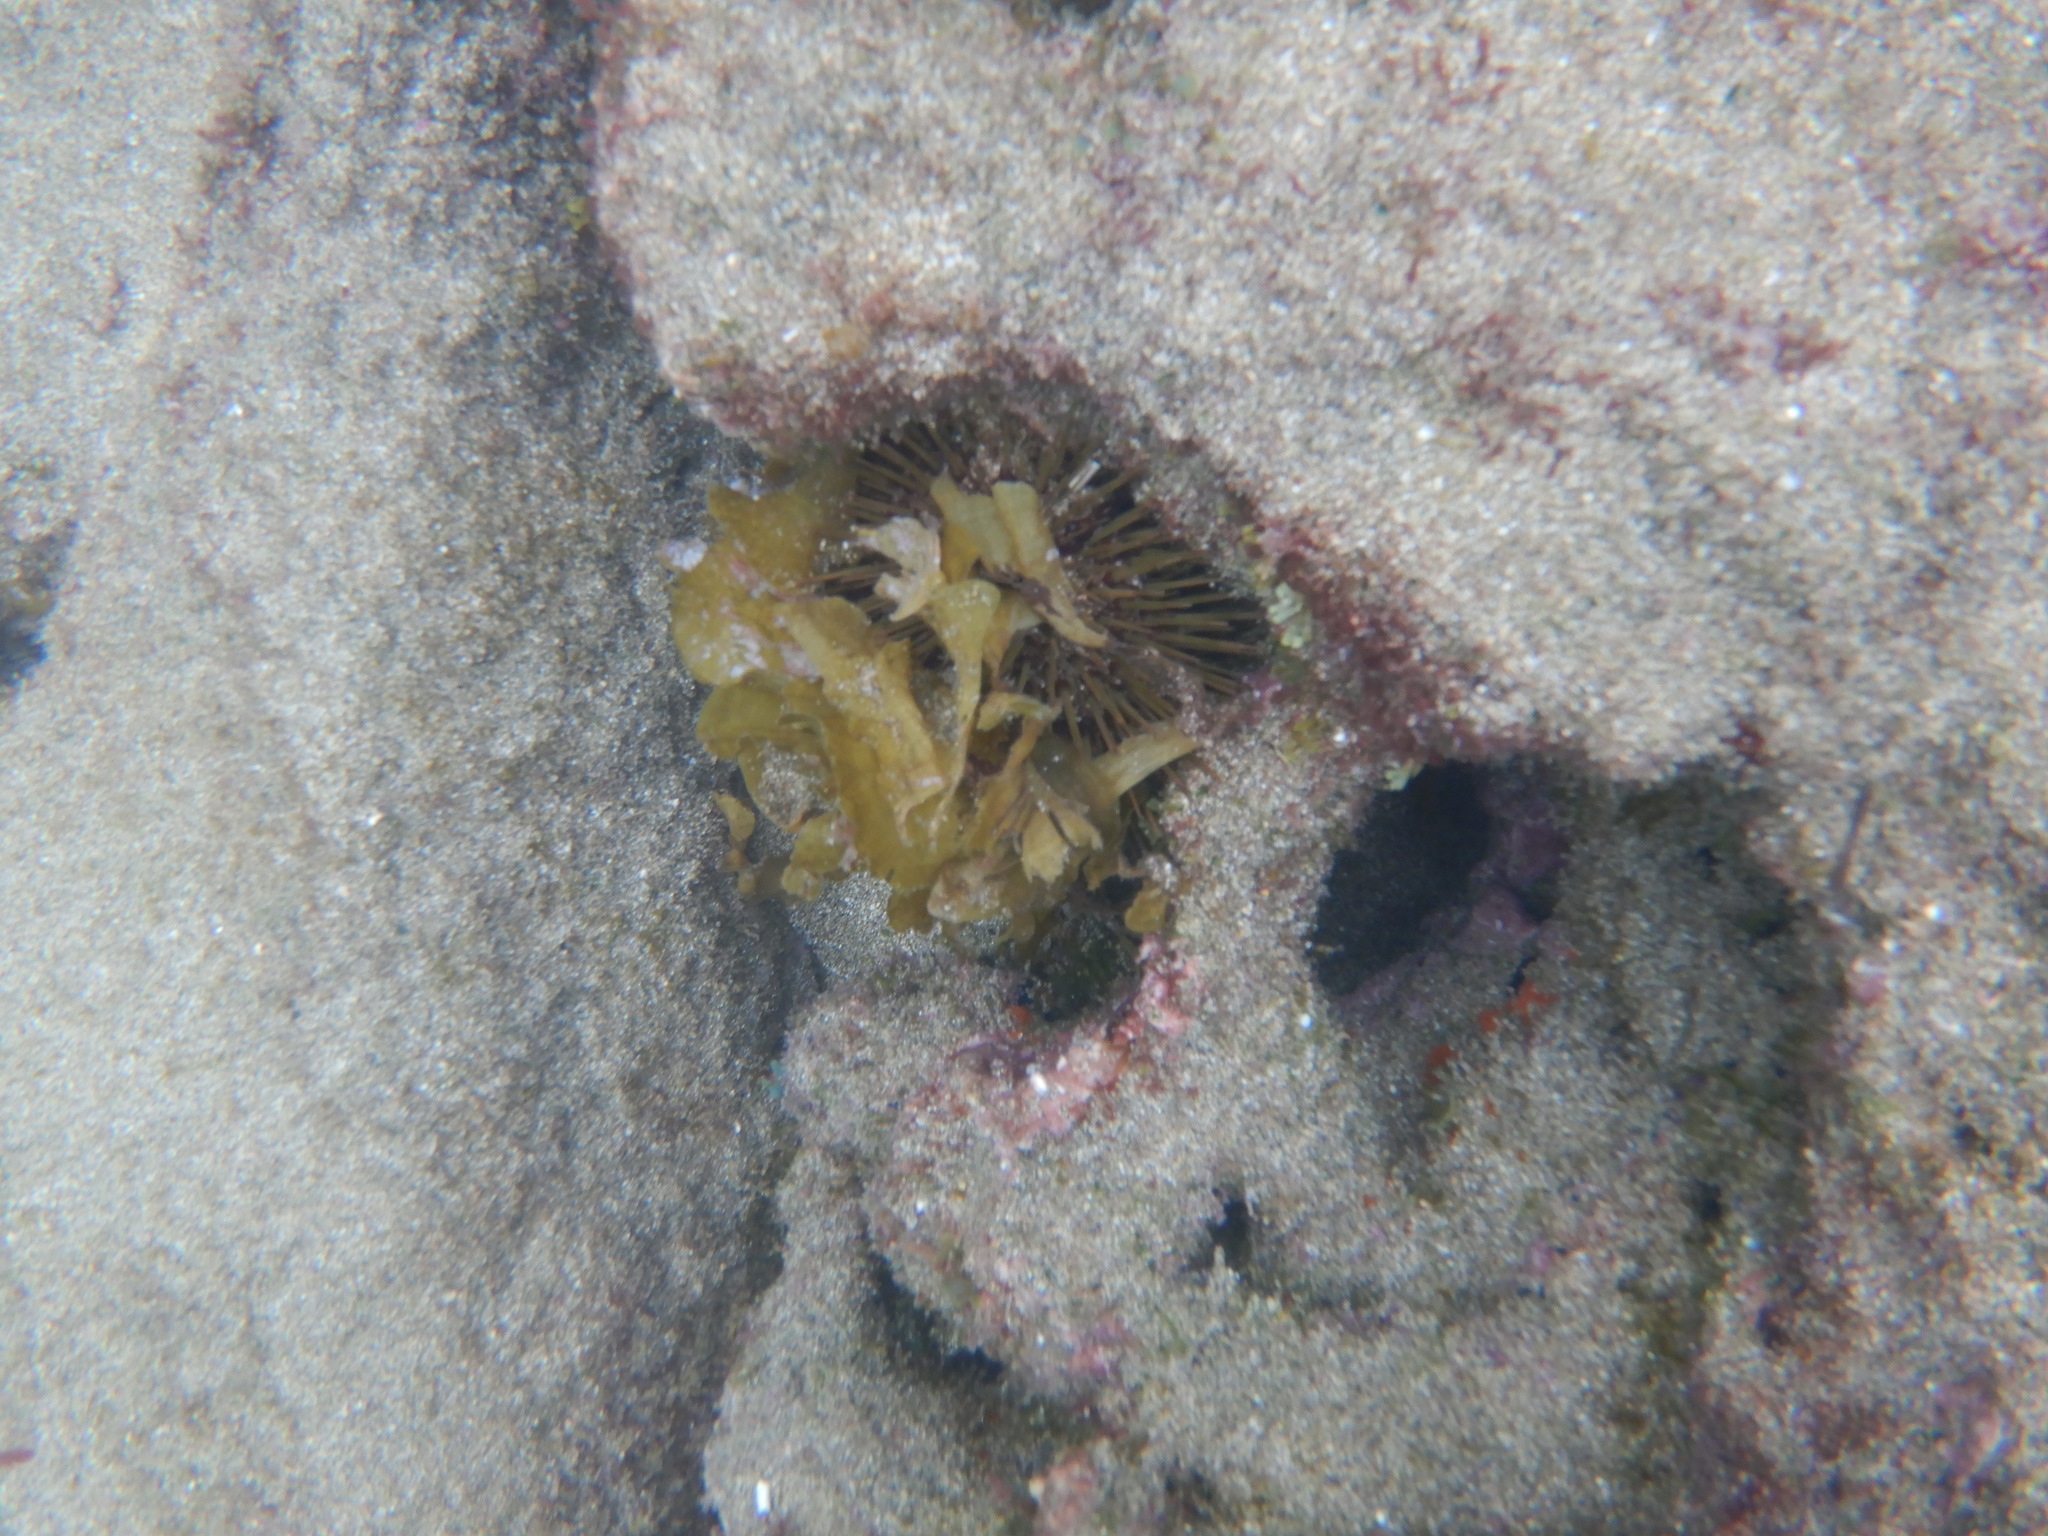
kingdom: Animalia
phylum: Echinodermata
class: Echinoidea
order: Camarodonta
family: Parechinidae
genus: Paracentrotus
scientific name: Paracentrotus lividus
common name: Purple sea urchin
